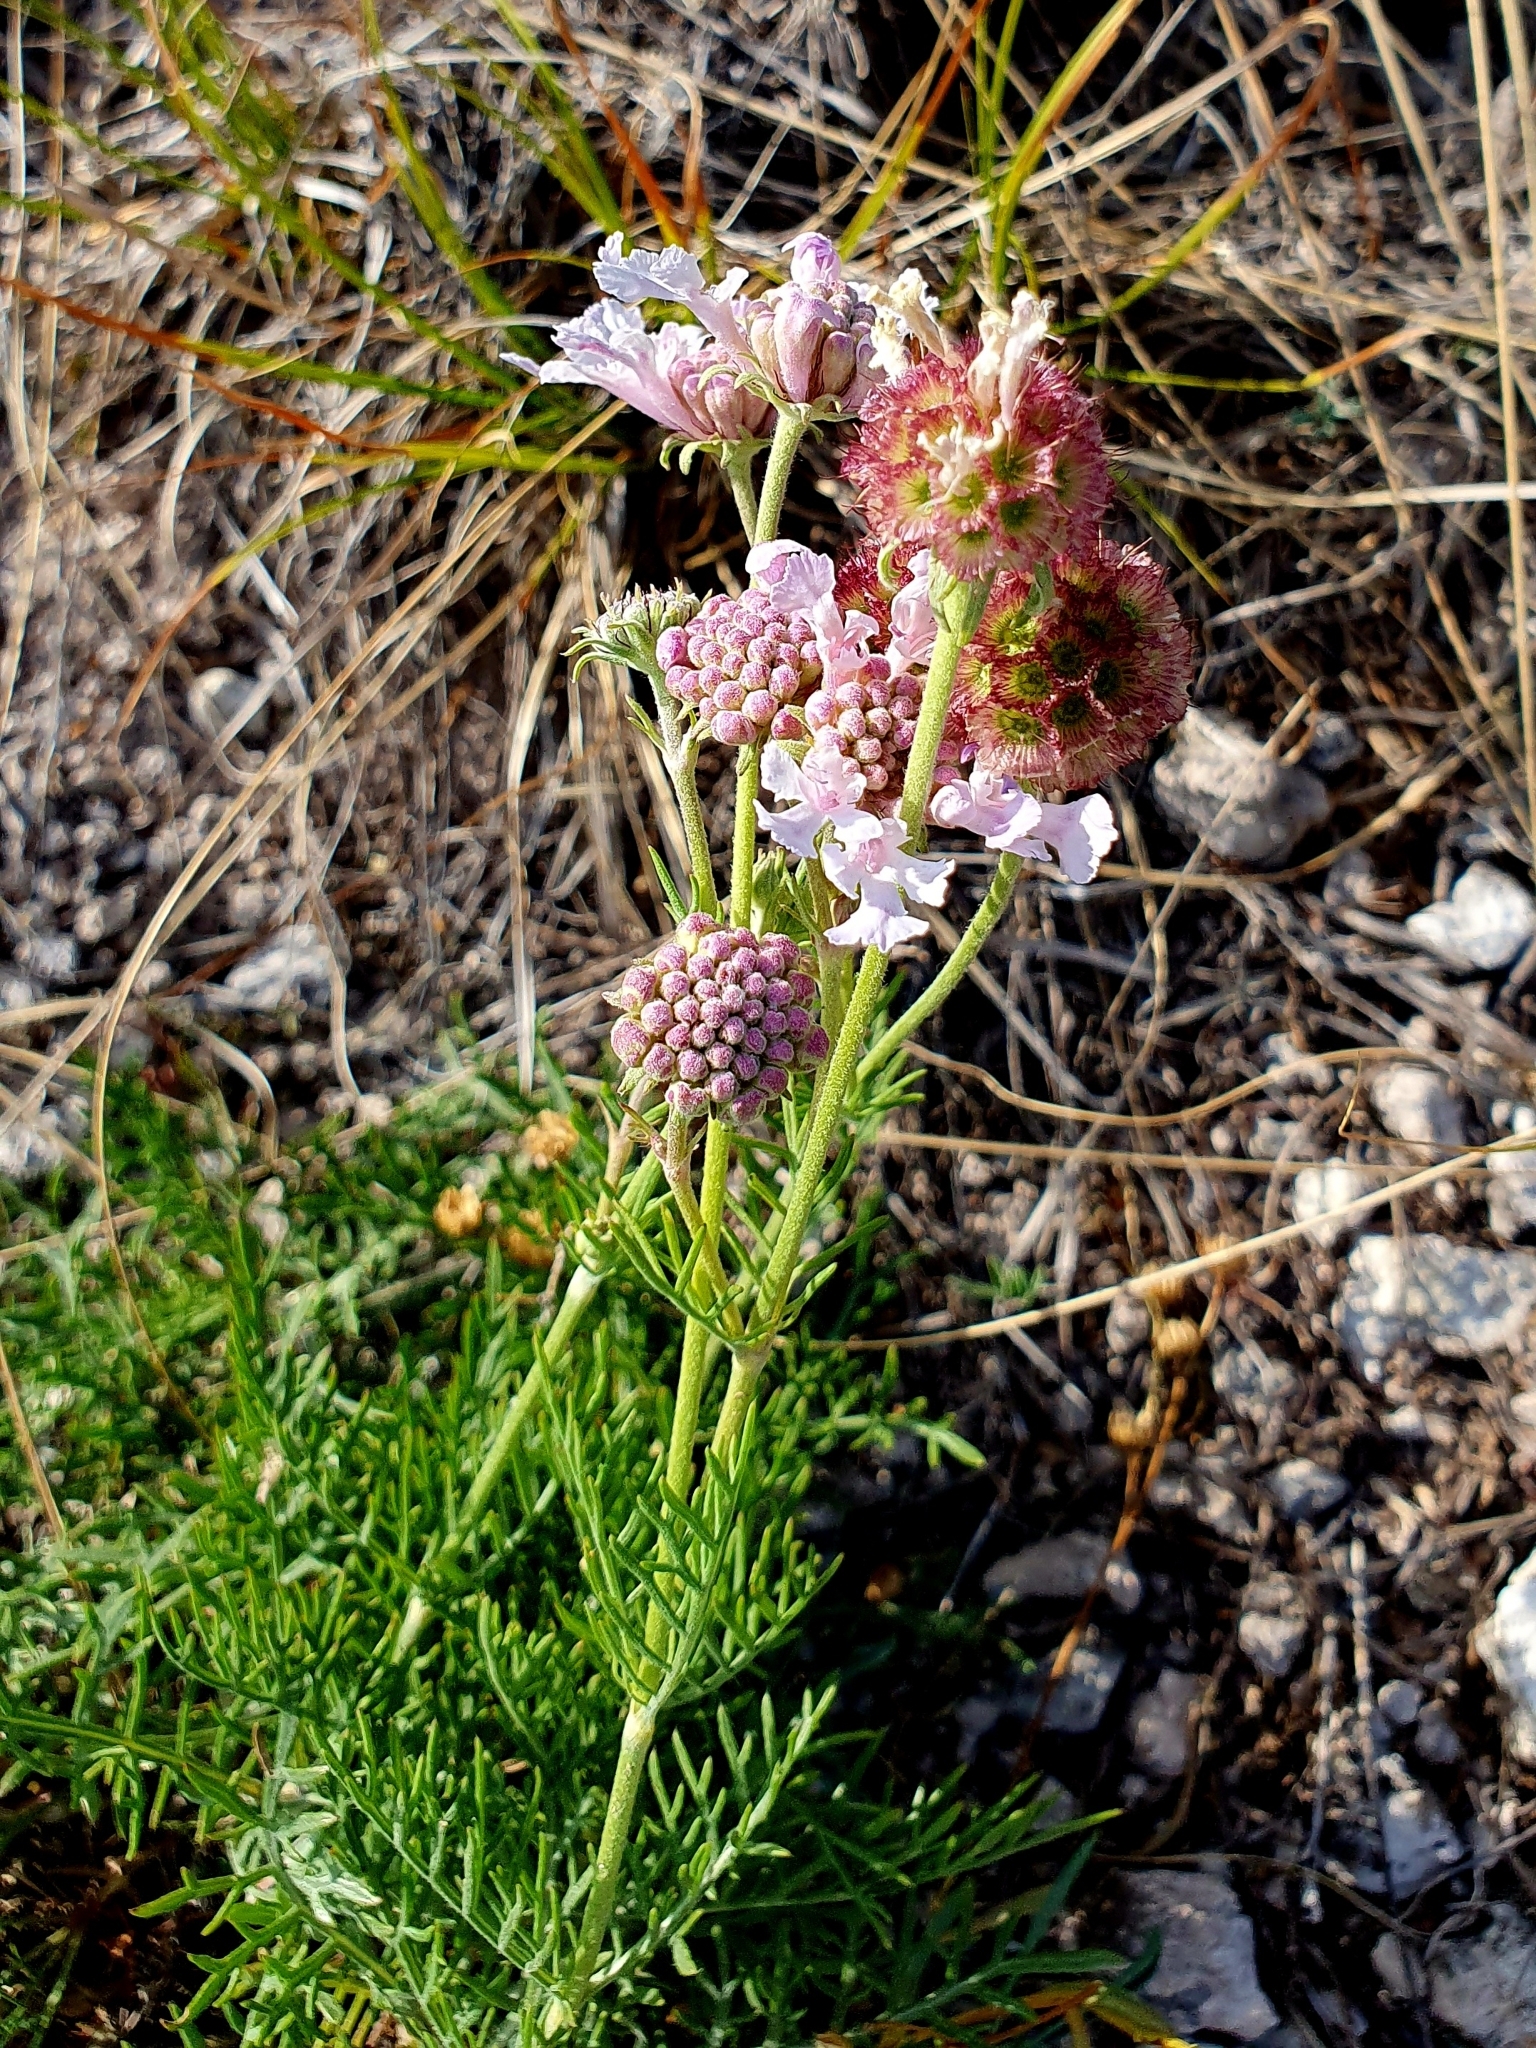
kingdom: Plantae
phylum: Tracheophyta
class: Magnoliopsida
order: Dipsacales
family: Caprifoliaceae
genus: Lomelosia
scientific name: Lomelosia isetensis
